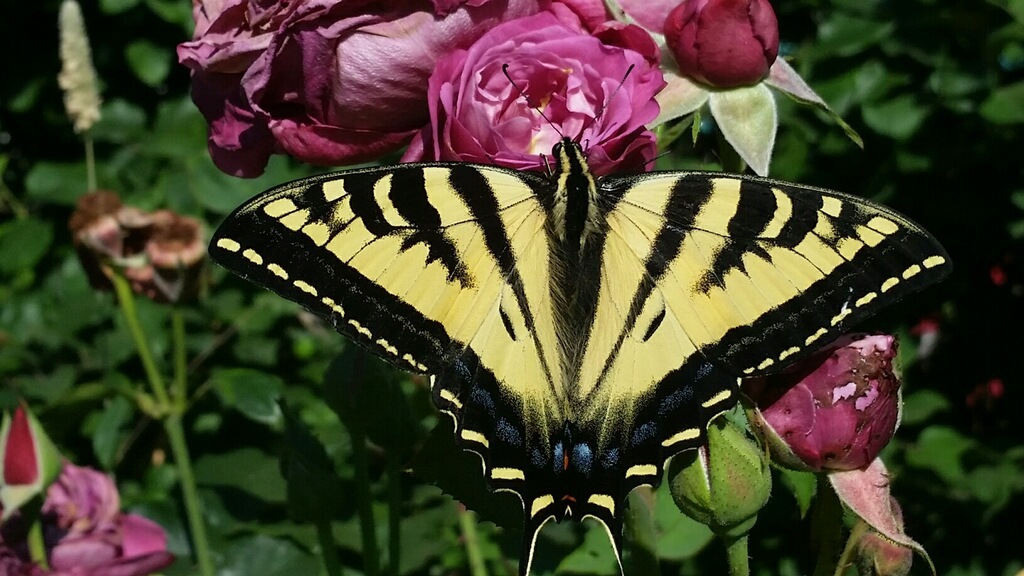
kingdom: Animalia
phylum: Arthropoda
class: Insecta
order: Lepidoptera
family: Papilionidae
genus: Papilio
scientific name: Papilio rutulus
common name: Western tiger swallowtail
